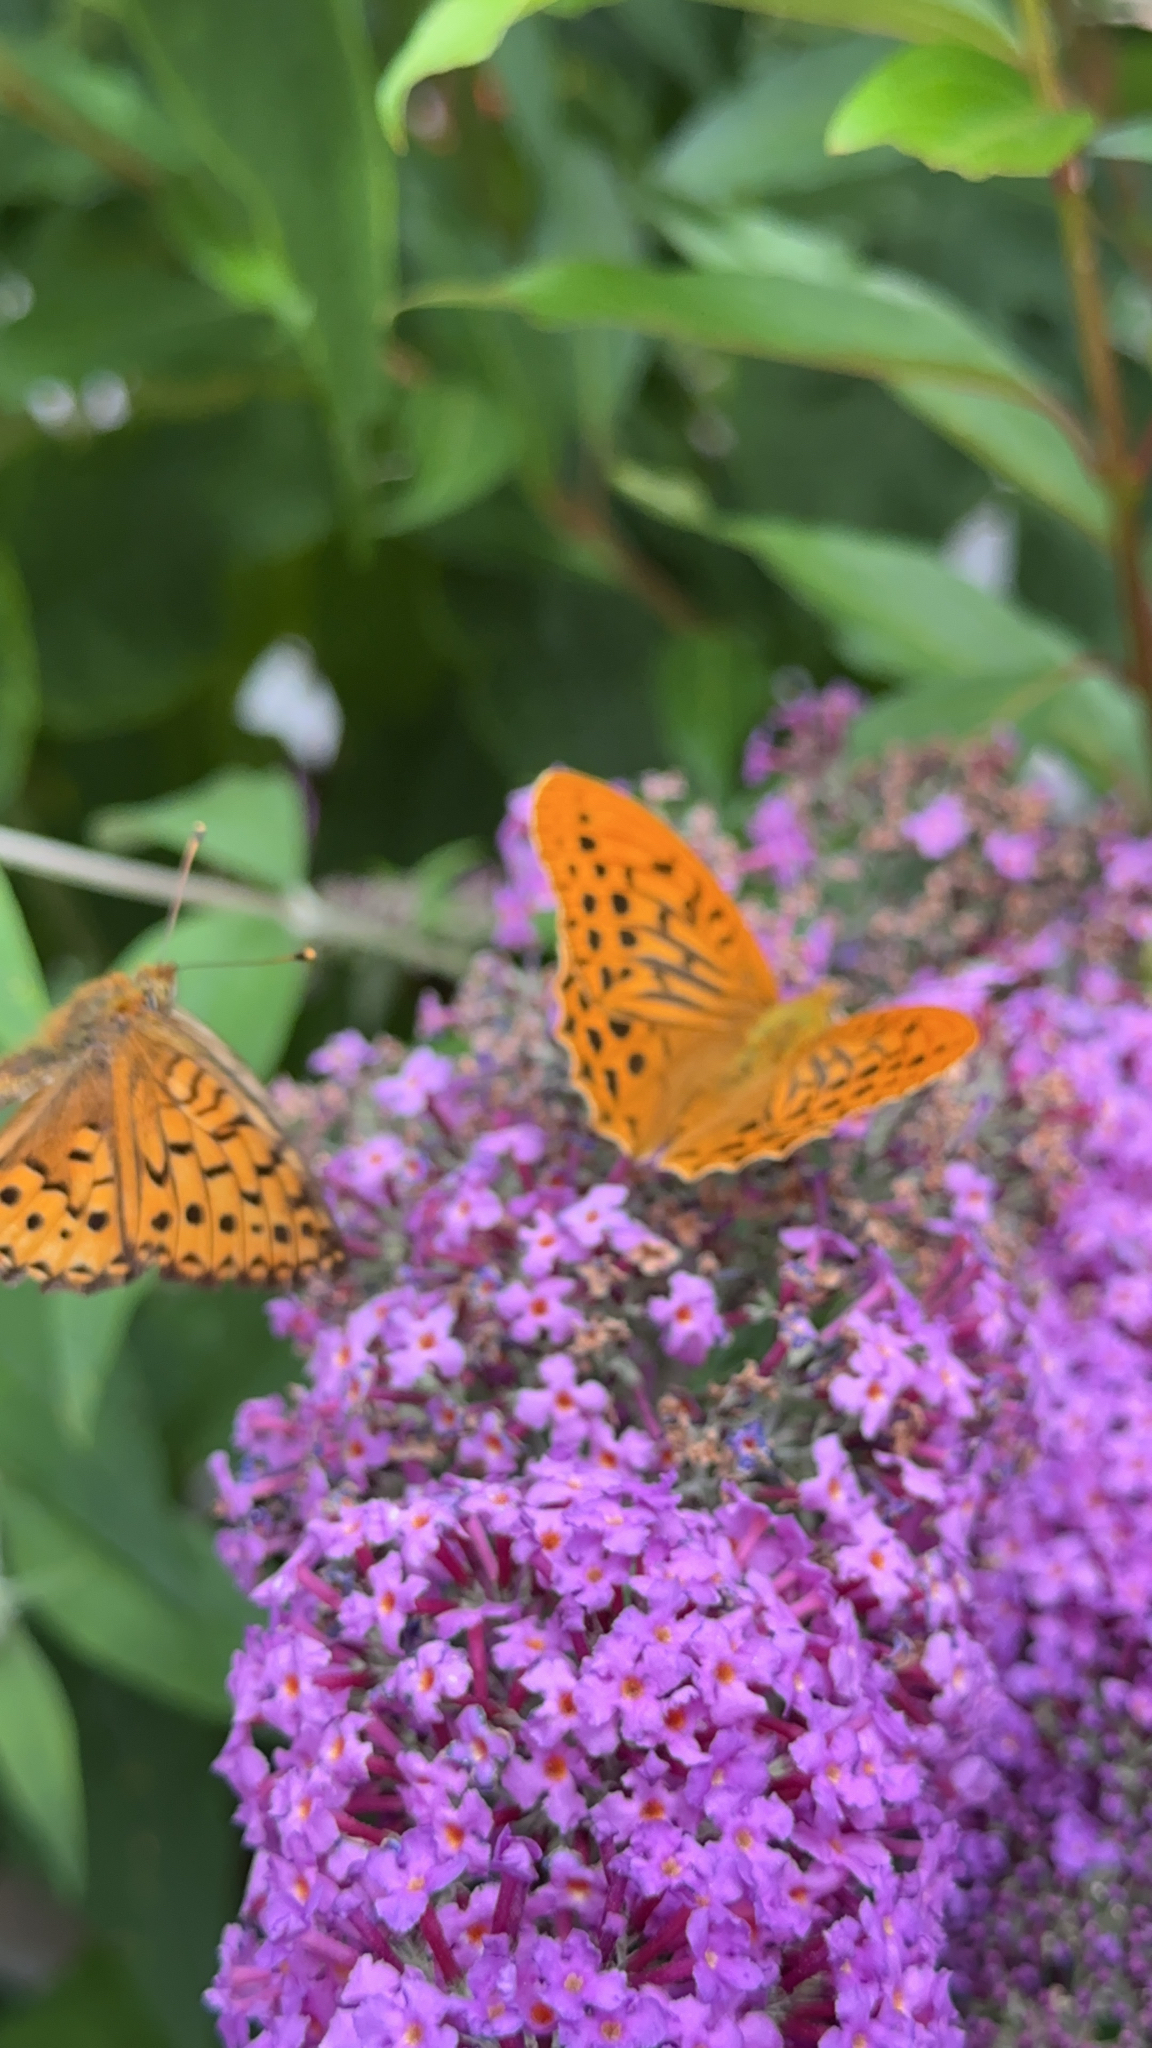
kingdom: Animalia
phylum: Arthropoda
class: Insecta
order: Lepidoptera
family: Nymphalidae
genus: Argynnis
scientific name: Argynnis paphia
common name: Silver-washed fritillary
